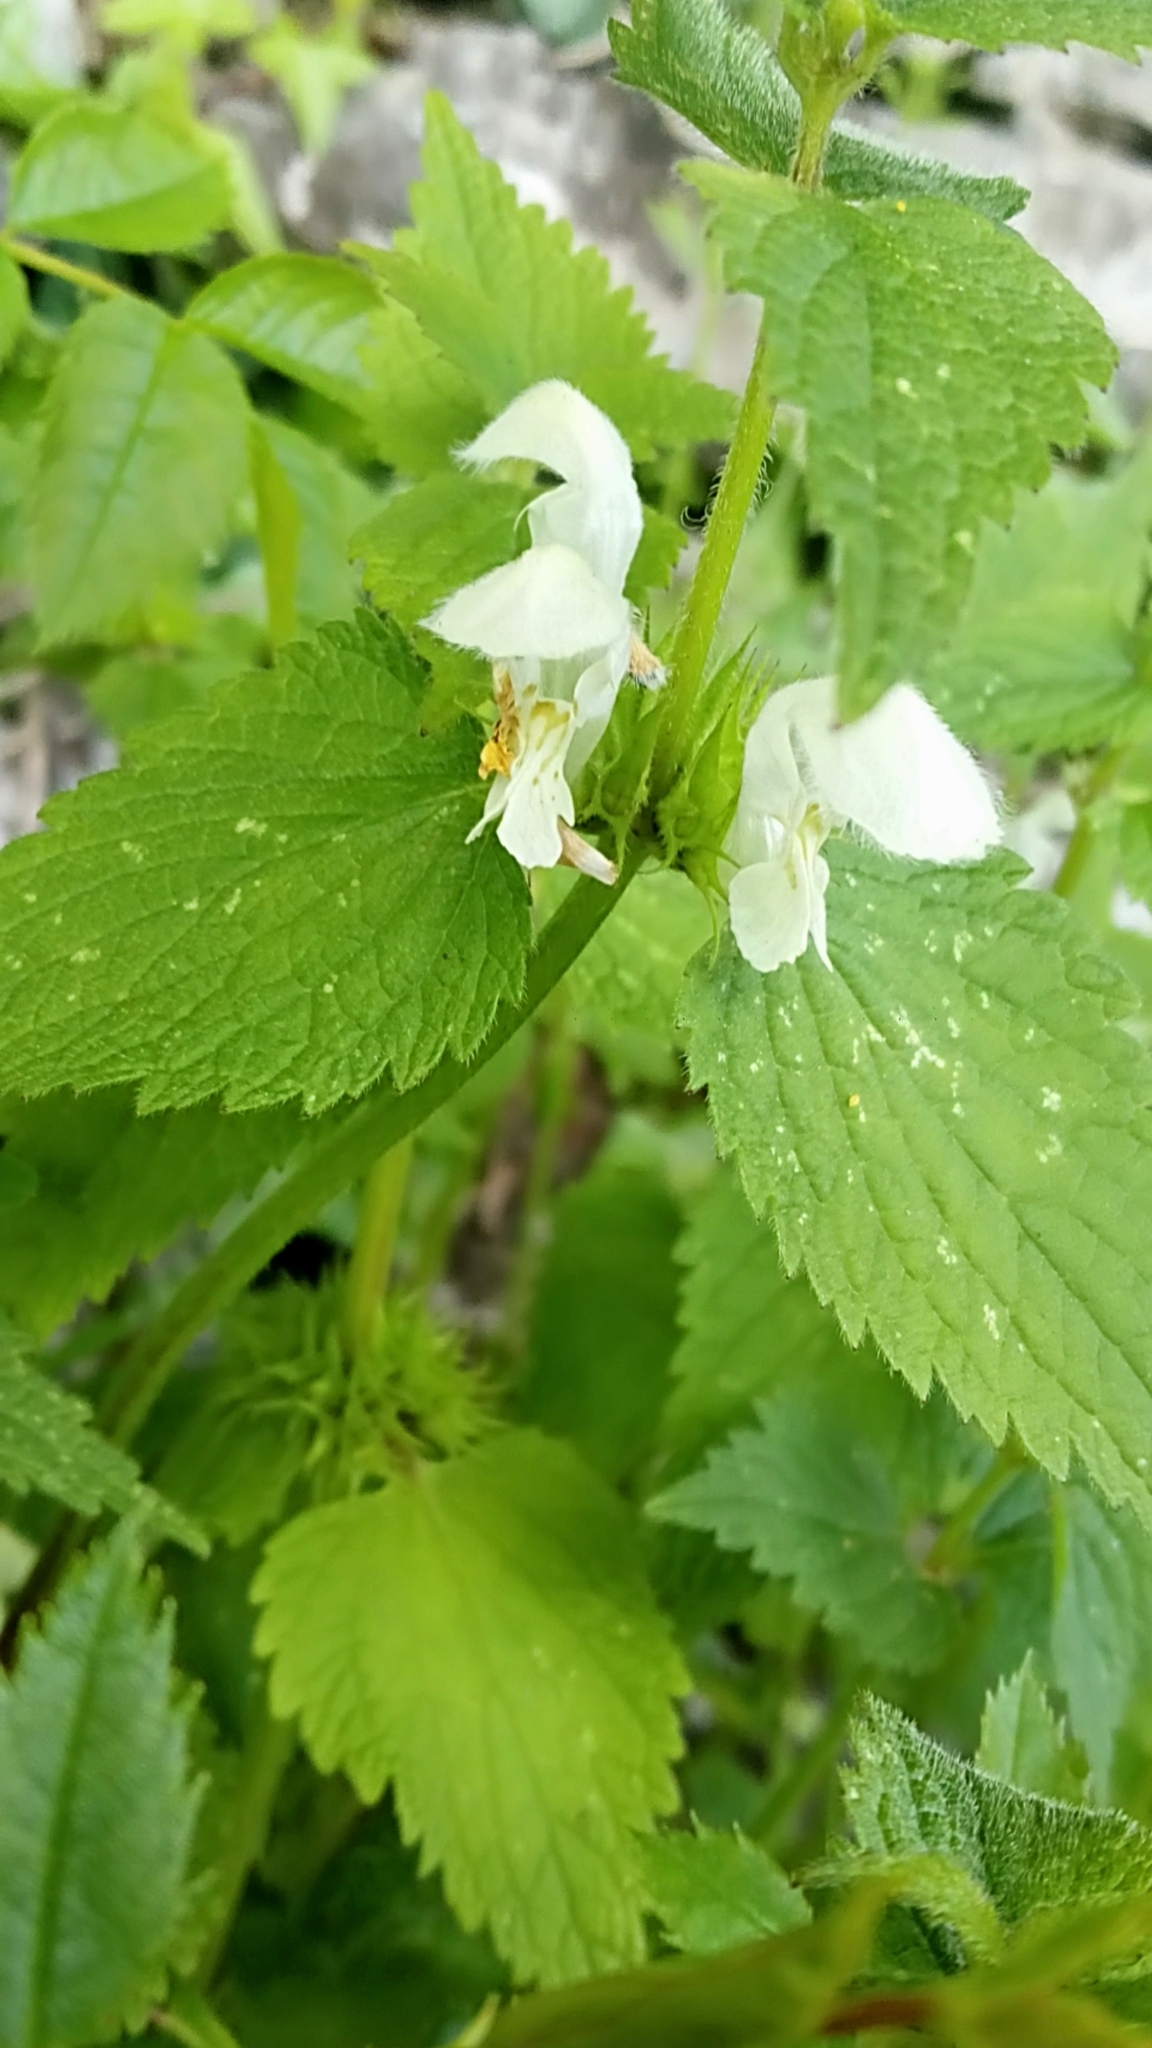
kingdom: Plantae
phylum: Tracheophyta
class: Magnoliopsida
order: Lamiales
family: Lamiaceae
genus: Lamium
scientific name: Lamium album
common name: White dead-nettle
